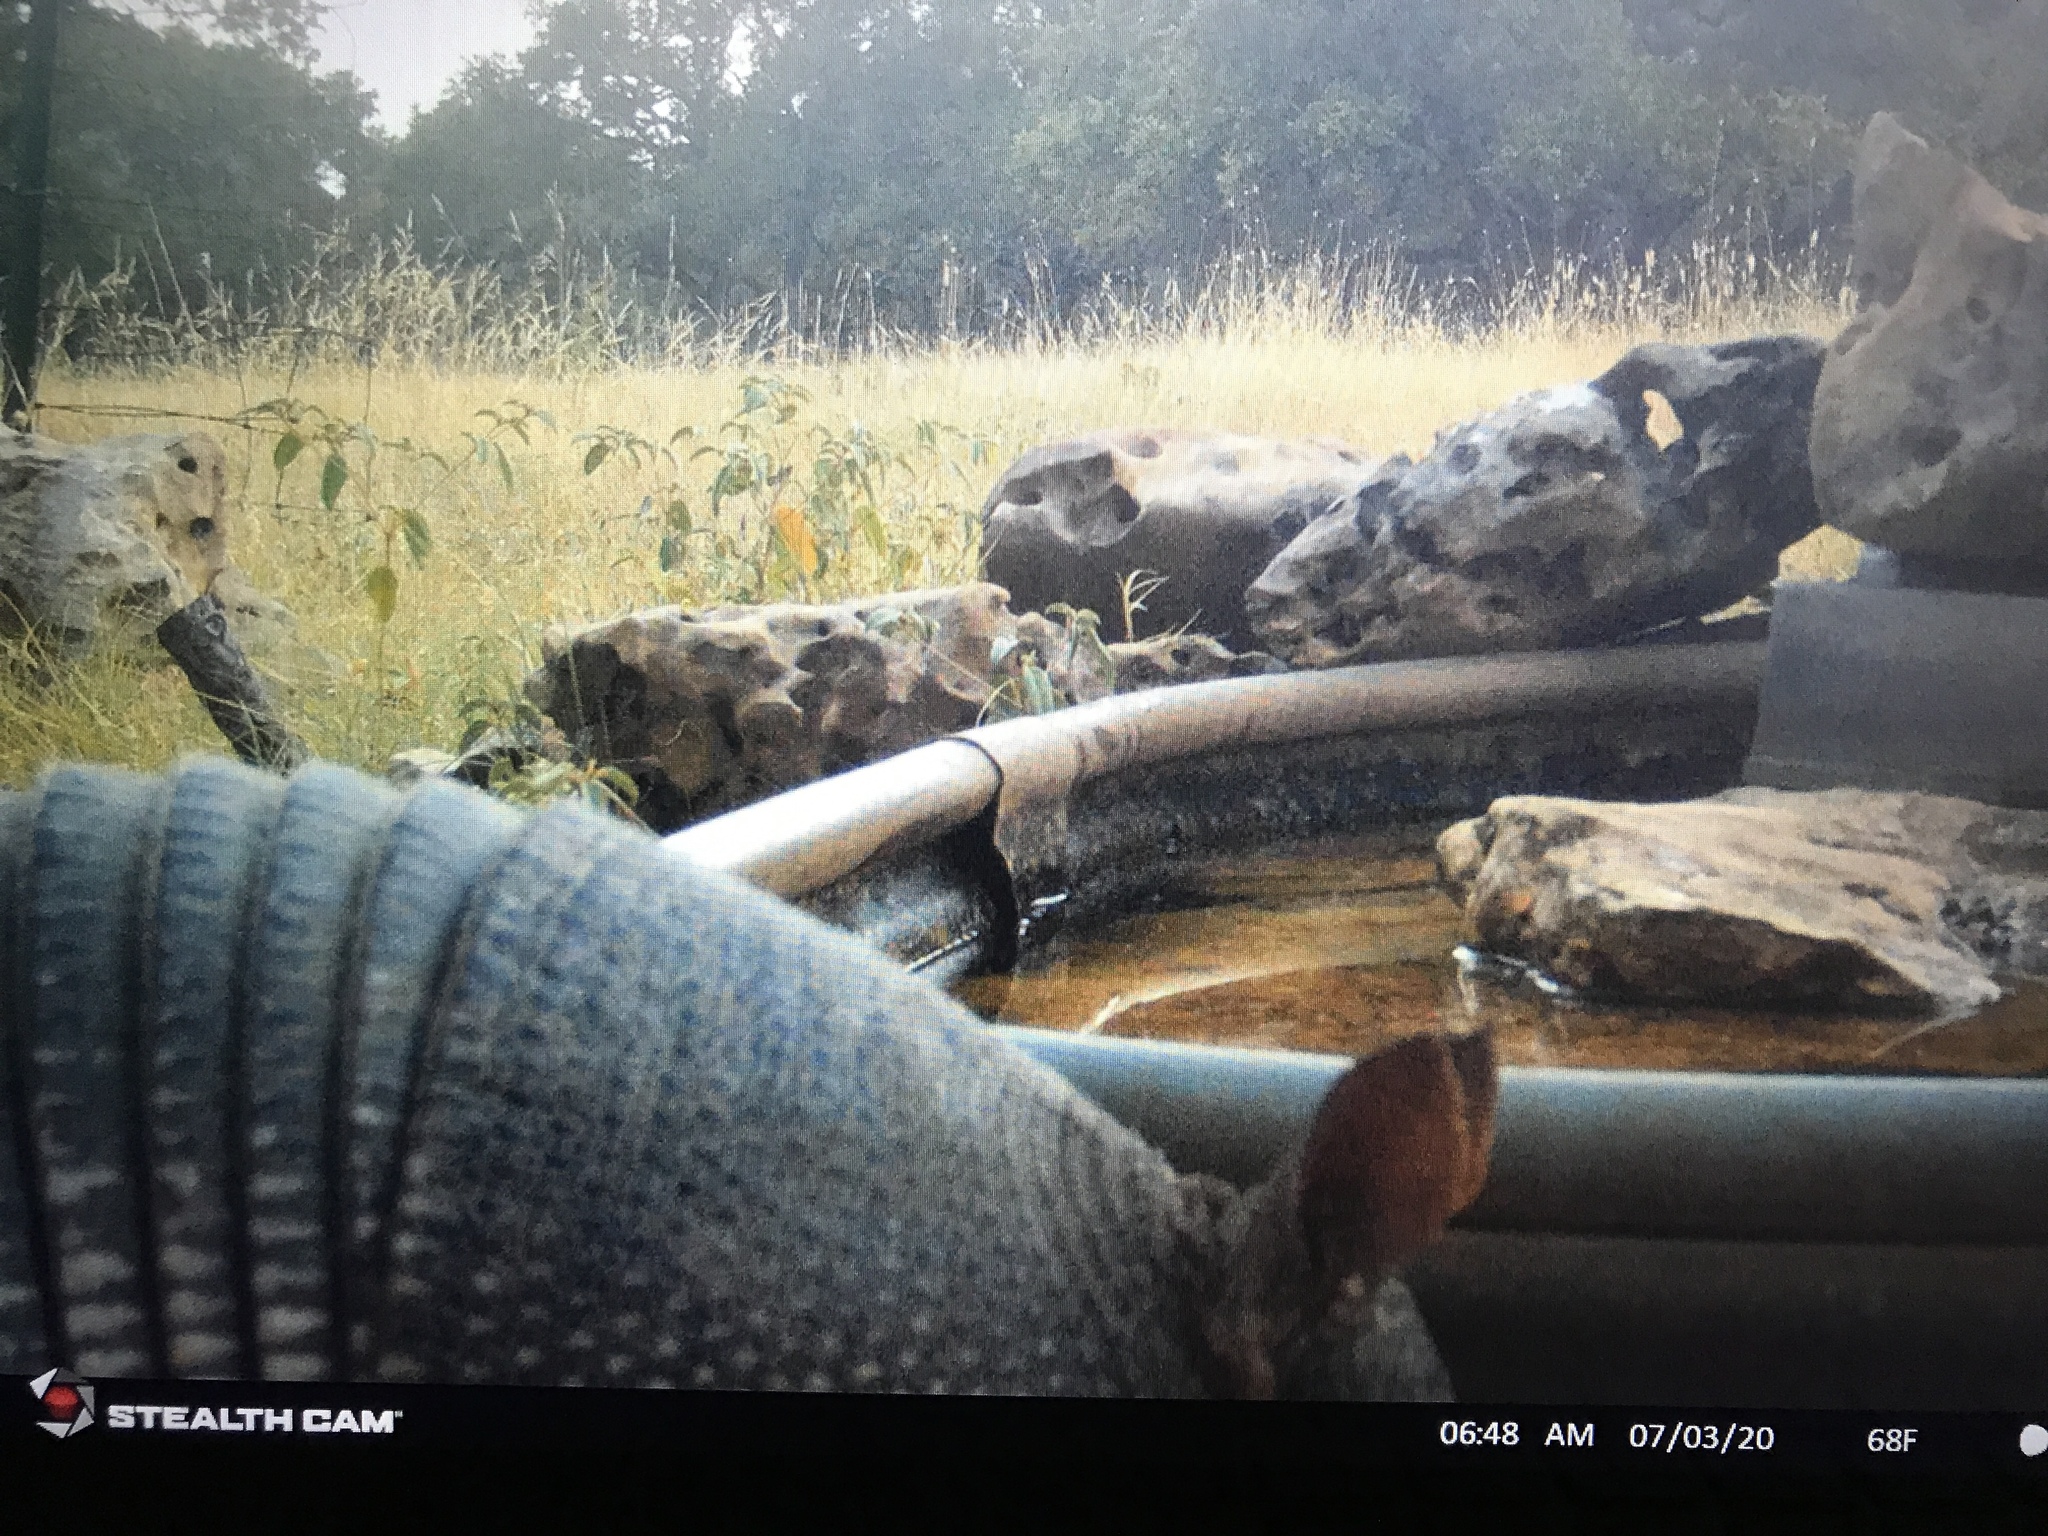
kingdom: Animalia
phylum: Chordata
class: Mammalia
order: Cingulata
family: Dasypodidae
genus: Dasypus
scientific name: Dasypus novemcinctus
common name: Nine-banded armadillo
